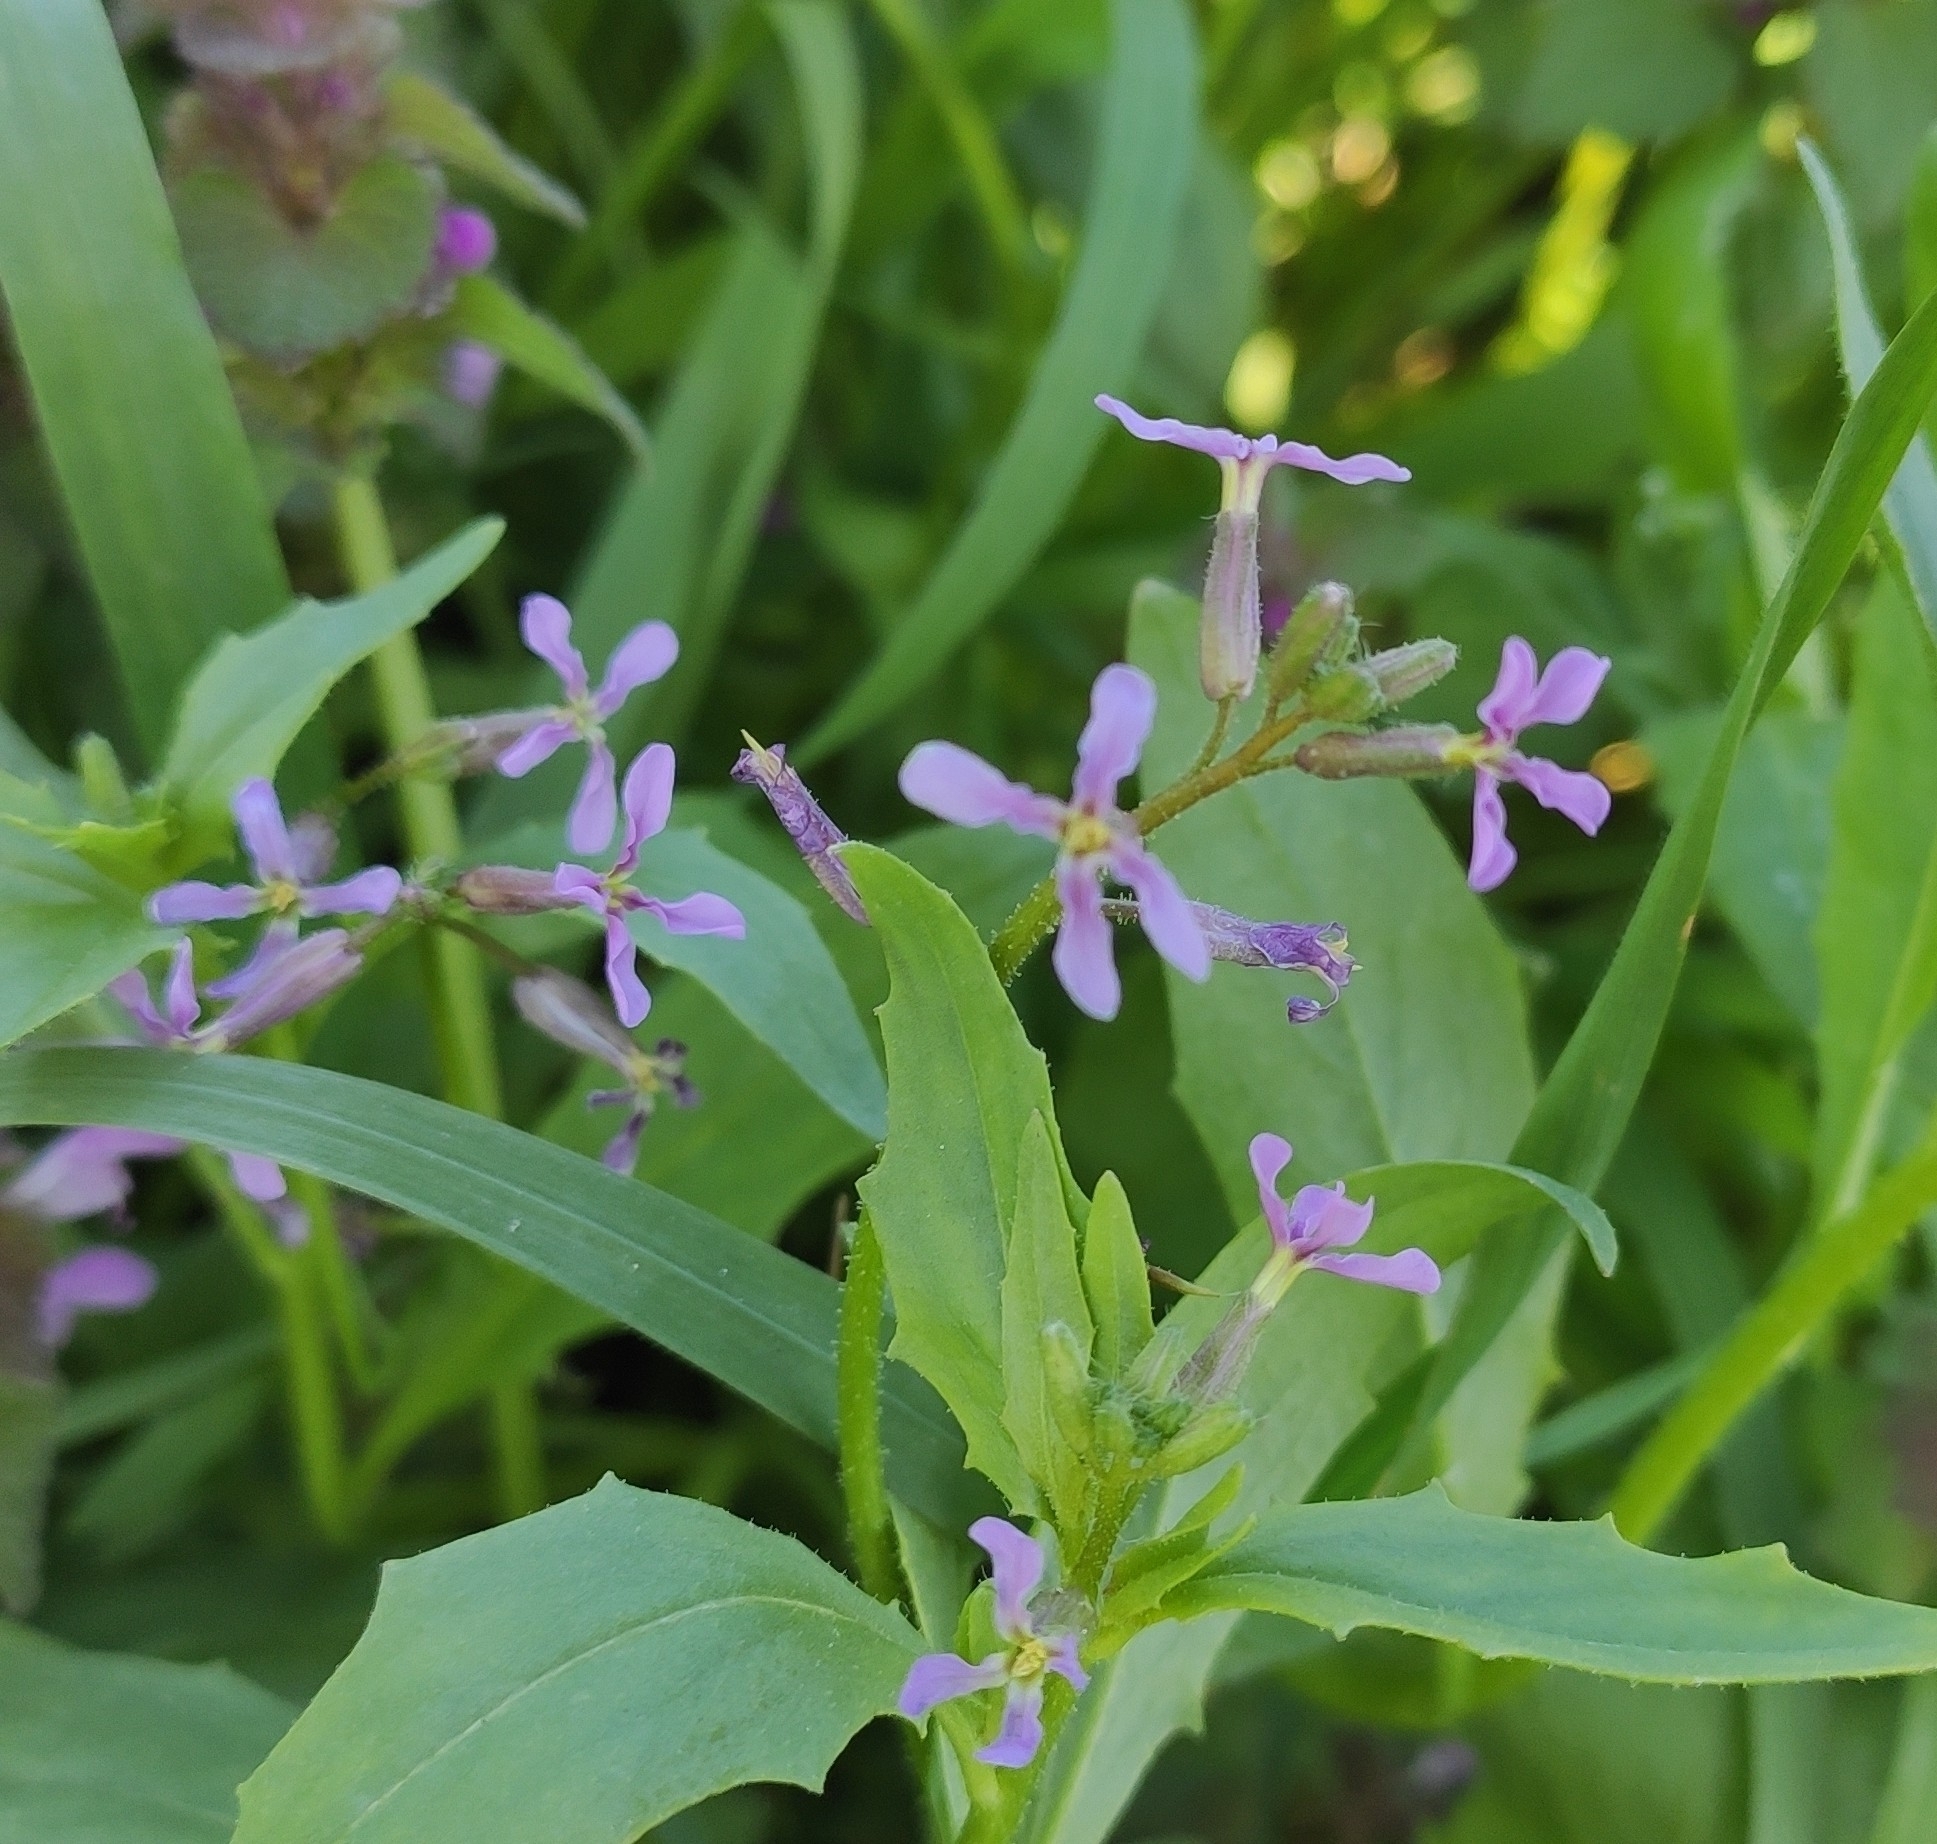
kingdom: Plantae
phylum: Tracheophyta
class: Magnoliopsida
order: Brassicales
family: Brassicaceae
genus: Chorispora
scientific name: Chorispora tenella
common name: Crossflower
